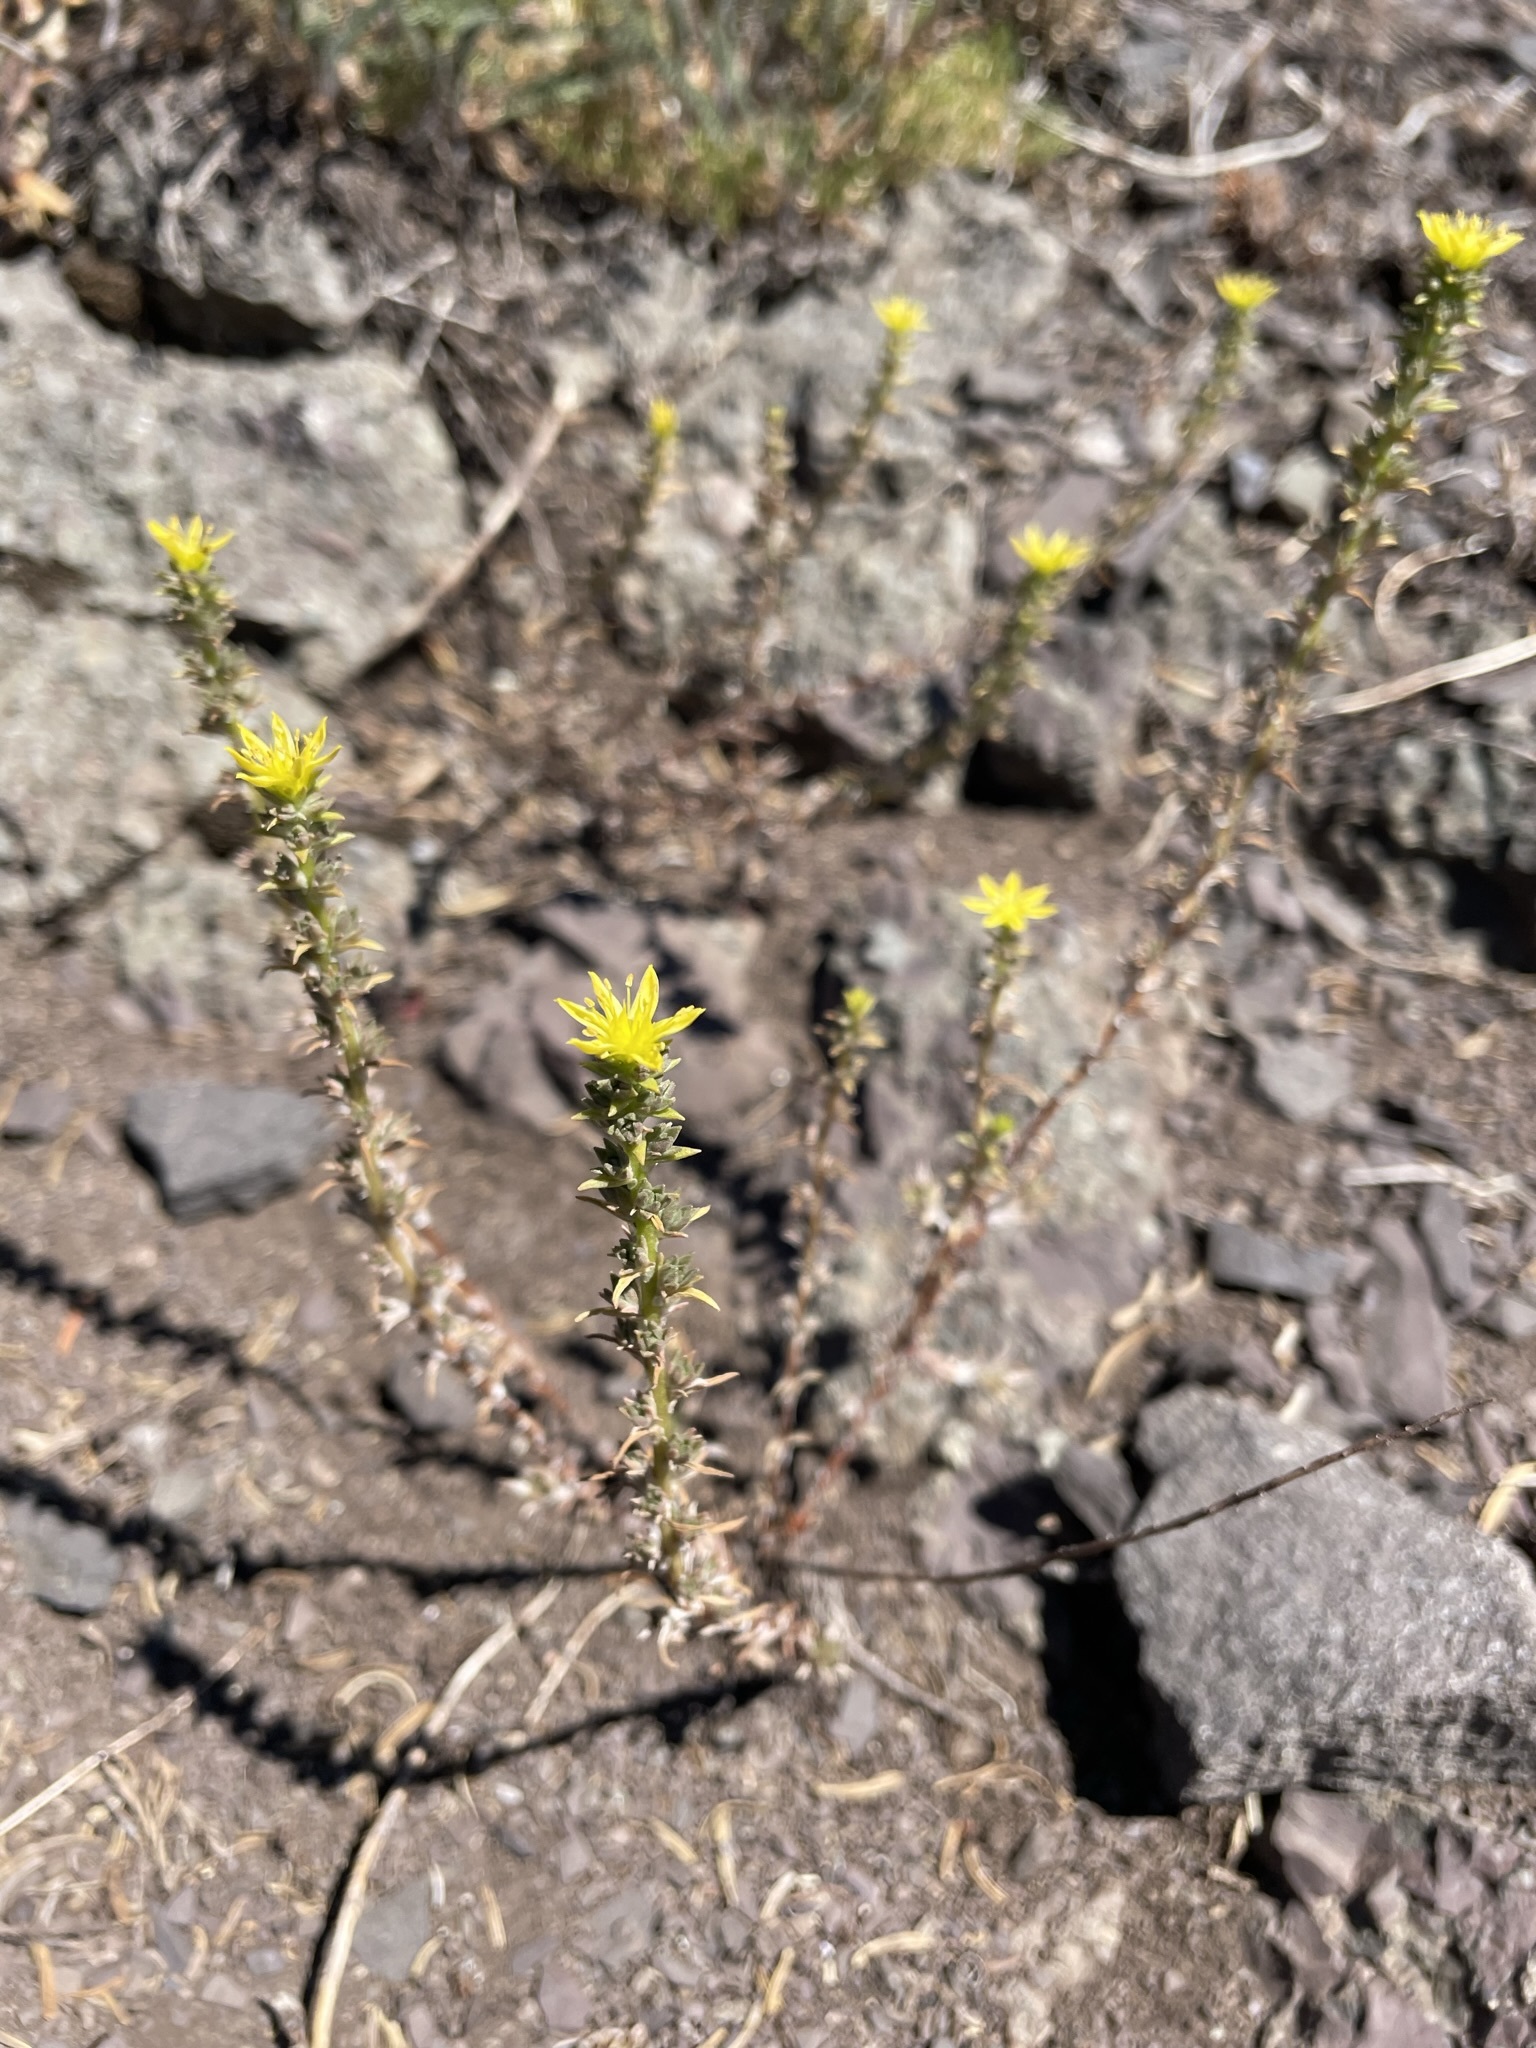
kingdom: Plantae
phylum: Tracheophyta
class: Magnoliopsida
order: Saxifragales
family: Crassulaceae
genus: Sedum
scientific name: Sedum stenopetalum
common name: Narrow-petaled stonecrop
